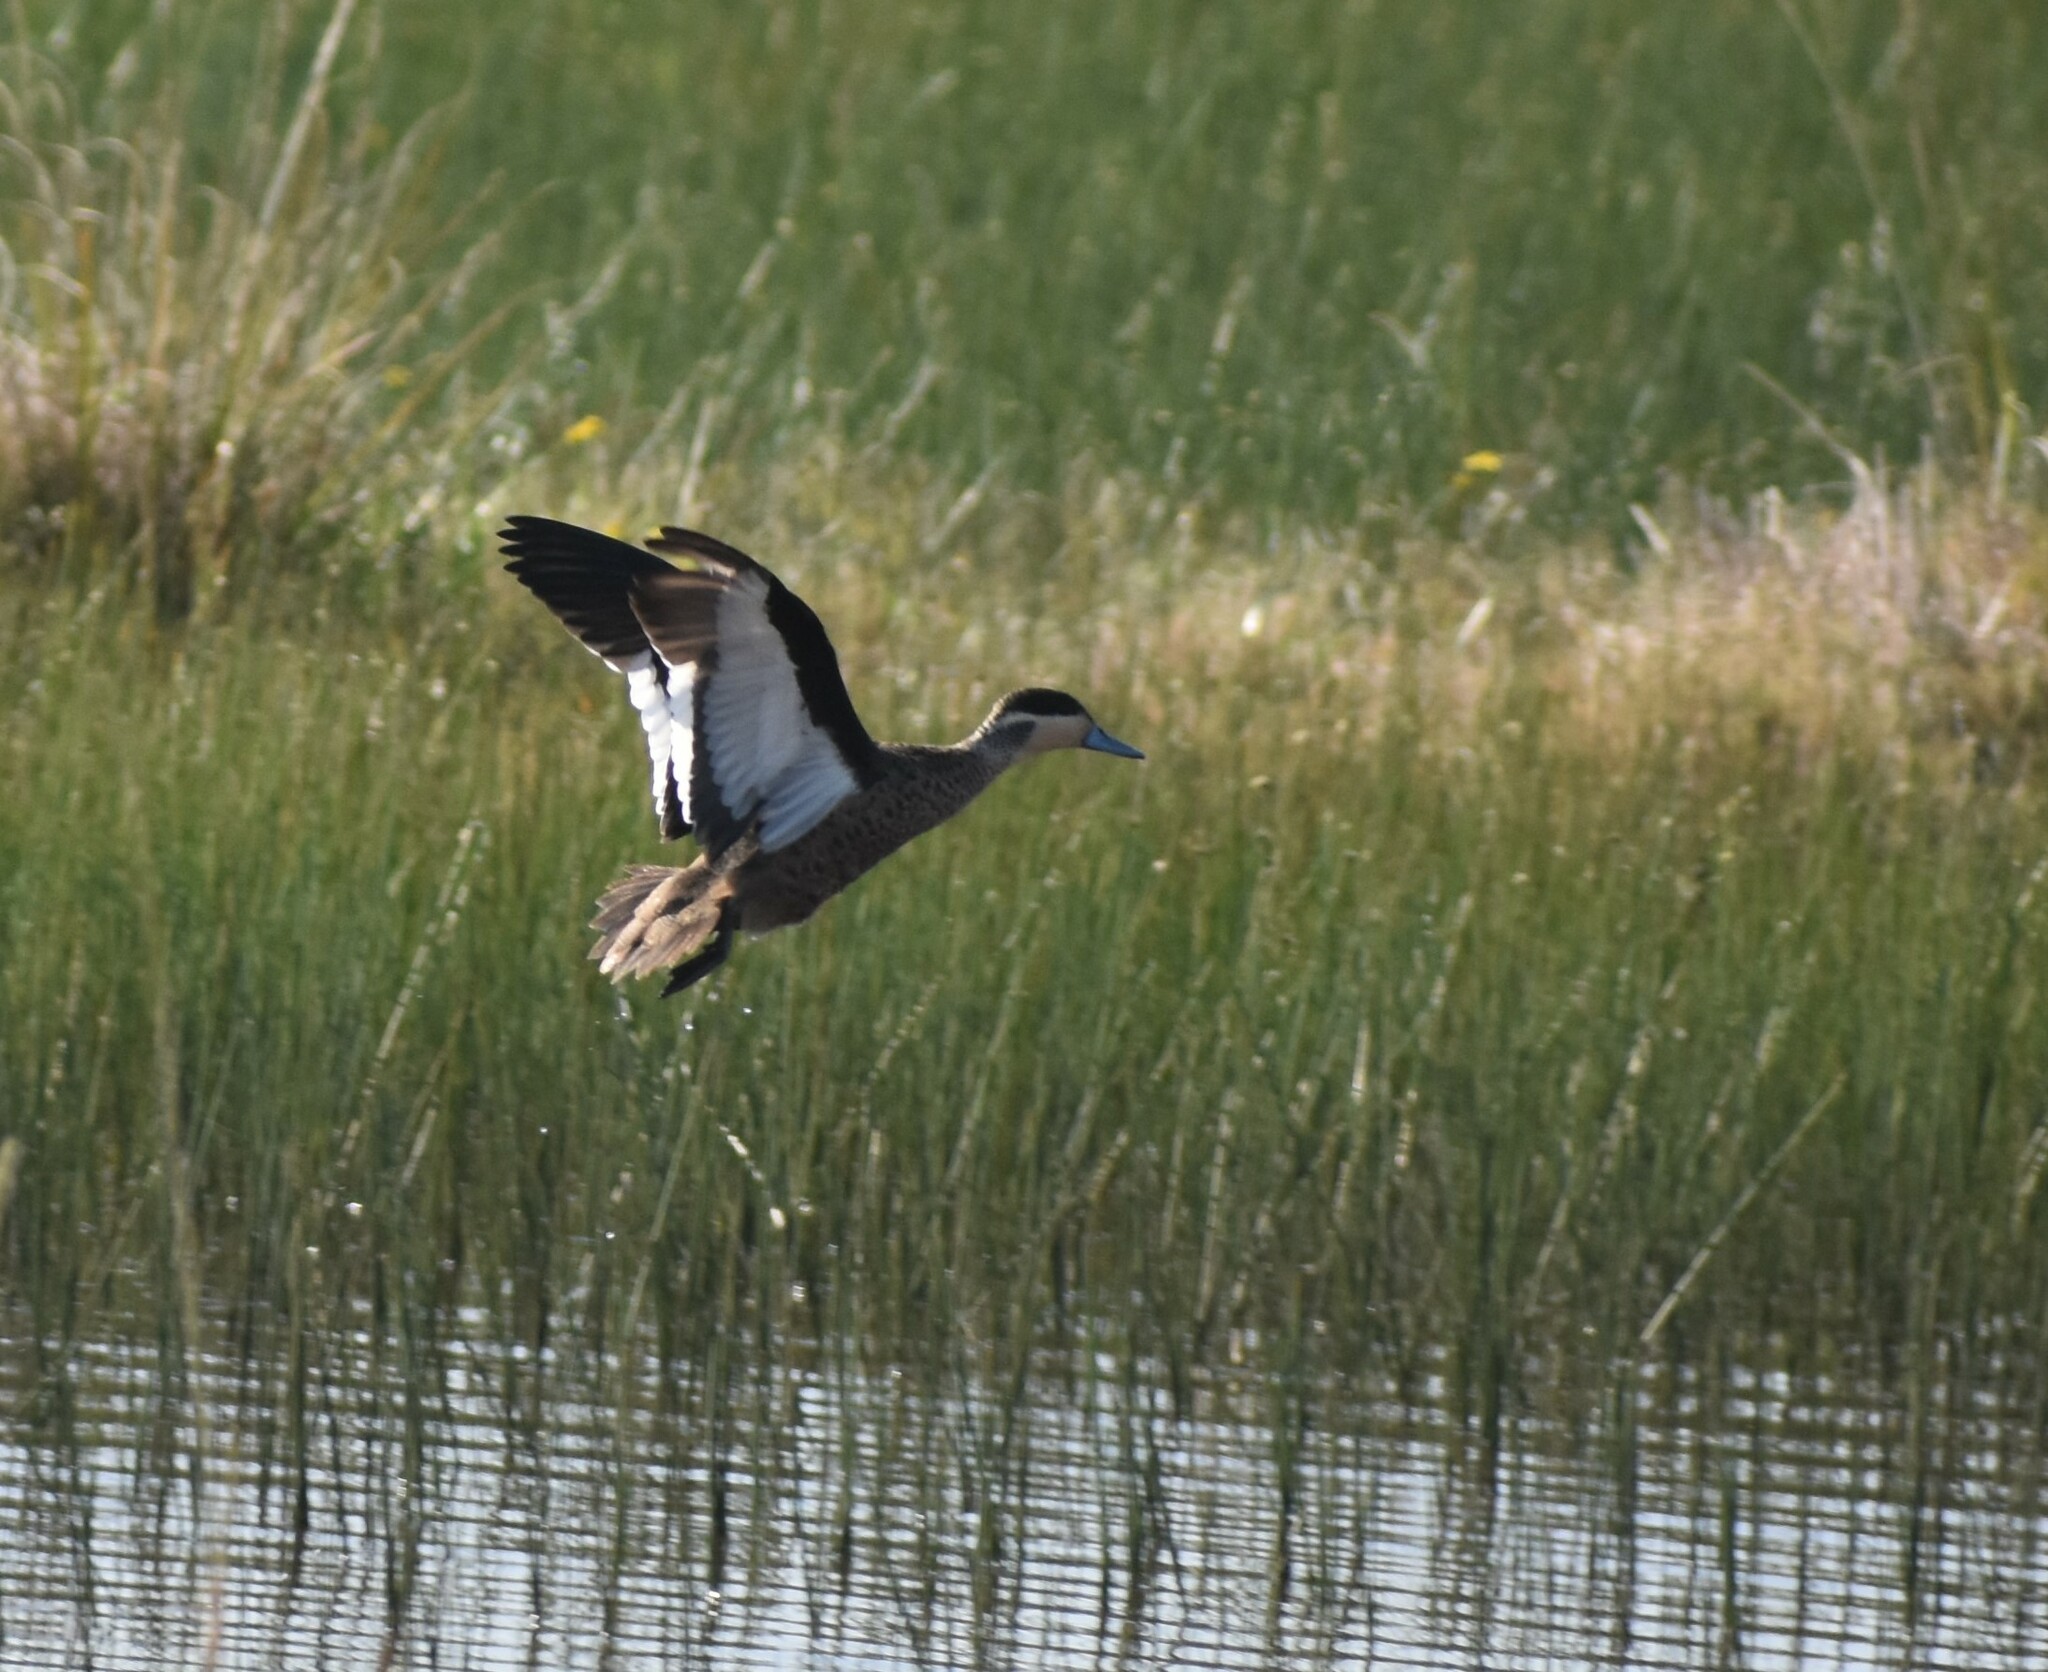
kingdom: Animalia
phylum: Chordata
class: Aves
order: Anseriformes
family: Anatidae
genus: Spatula
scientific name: Spatula hottentota
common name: Blue-billed teal
